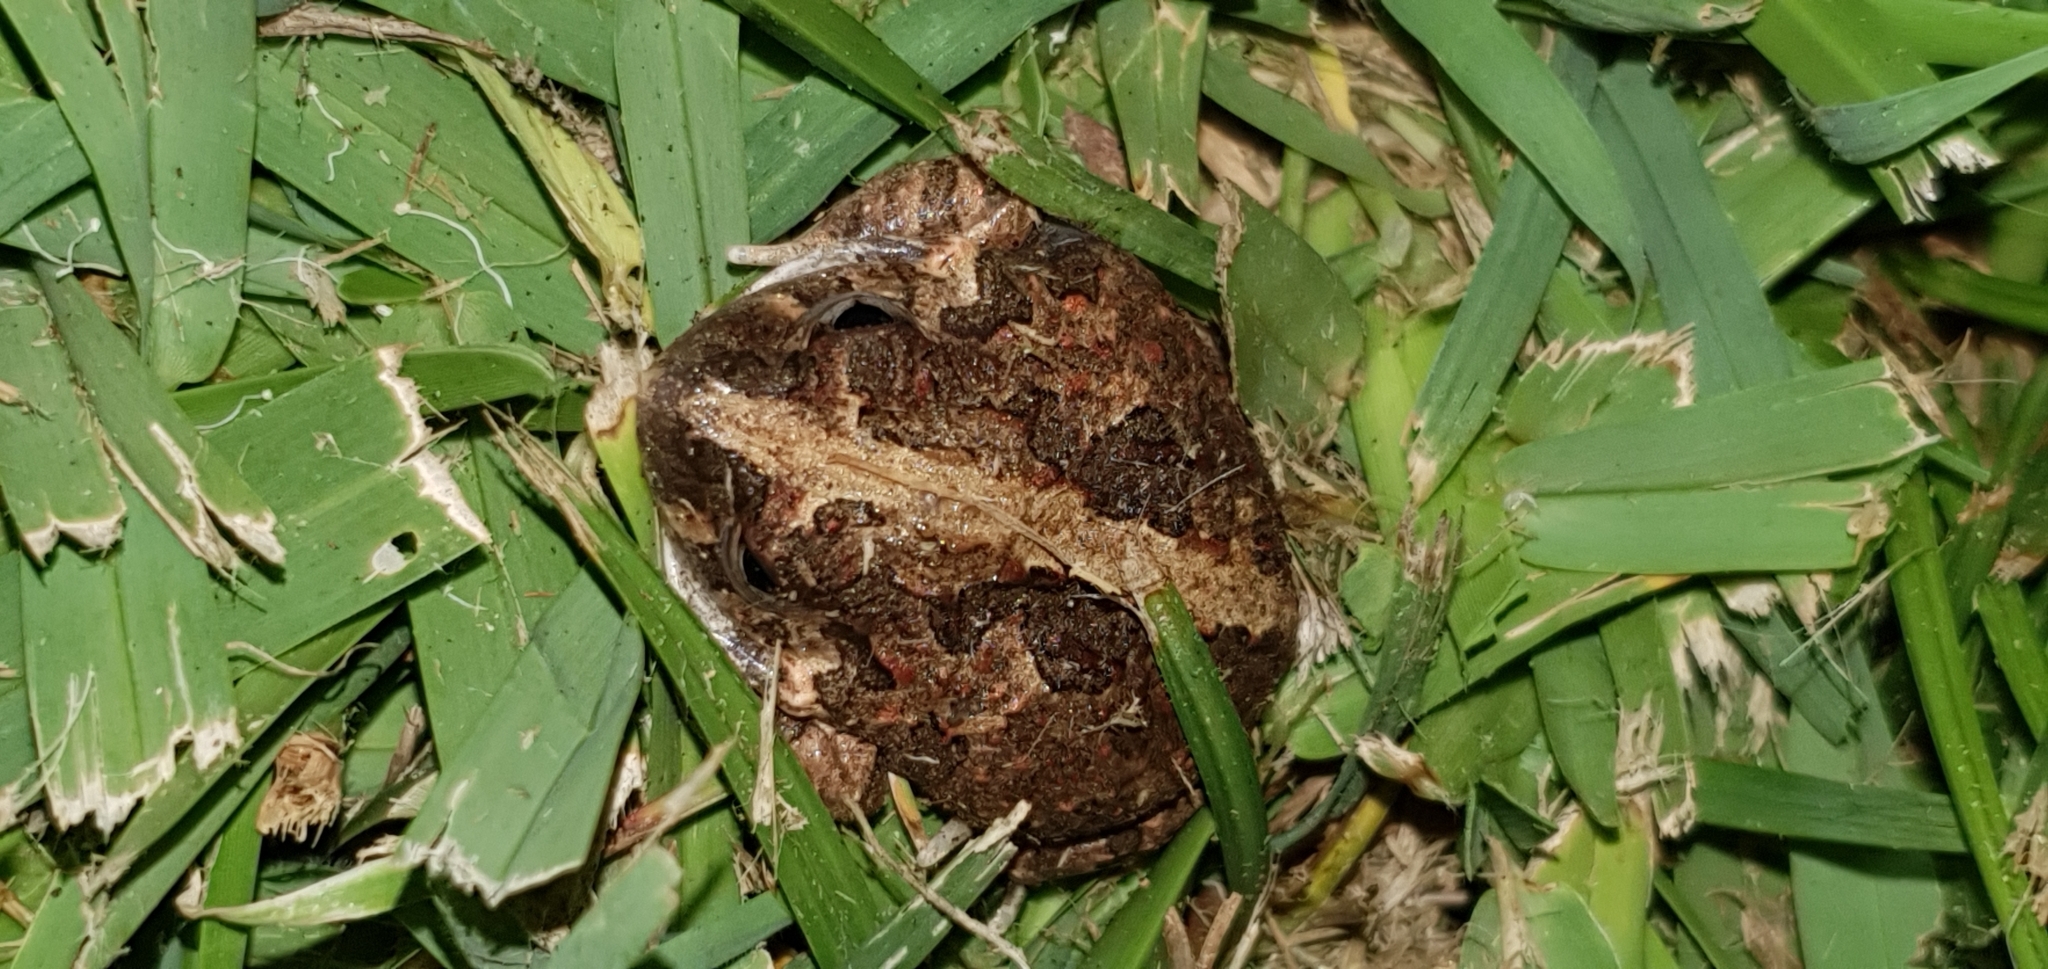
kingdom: Animalia
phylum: Chordata
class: Amphibia
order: Anura
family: Limnodynastidae
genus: Platyplectrum
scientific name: Platyplectrum ornatum
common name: Ornate burrowing frog
